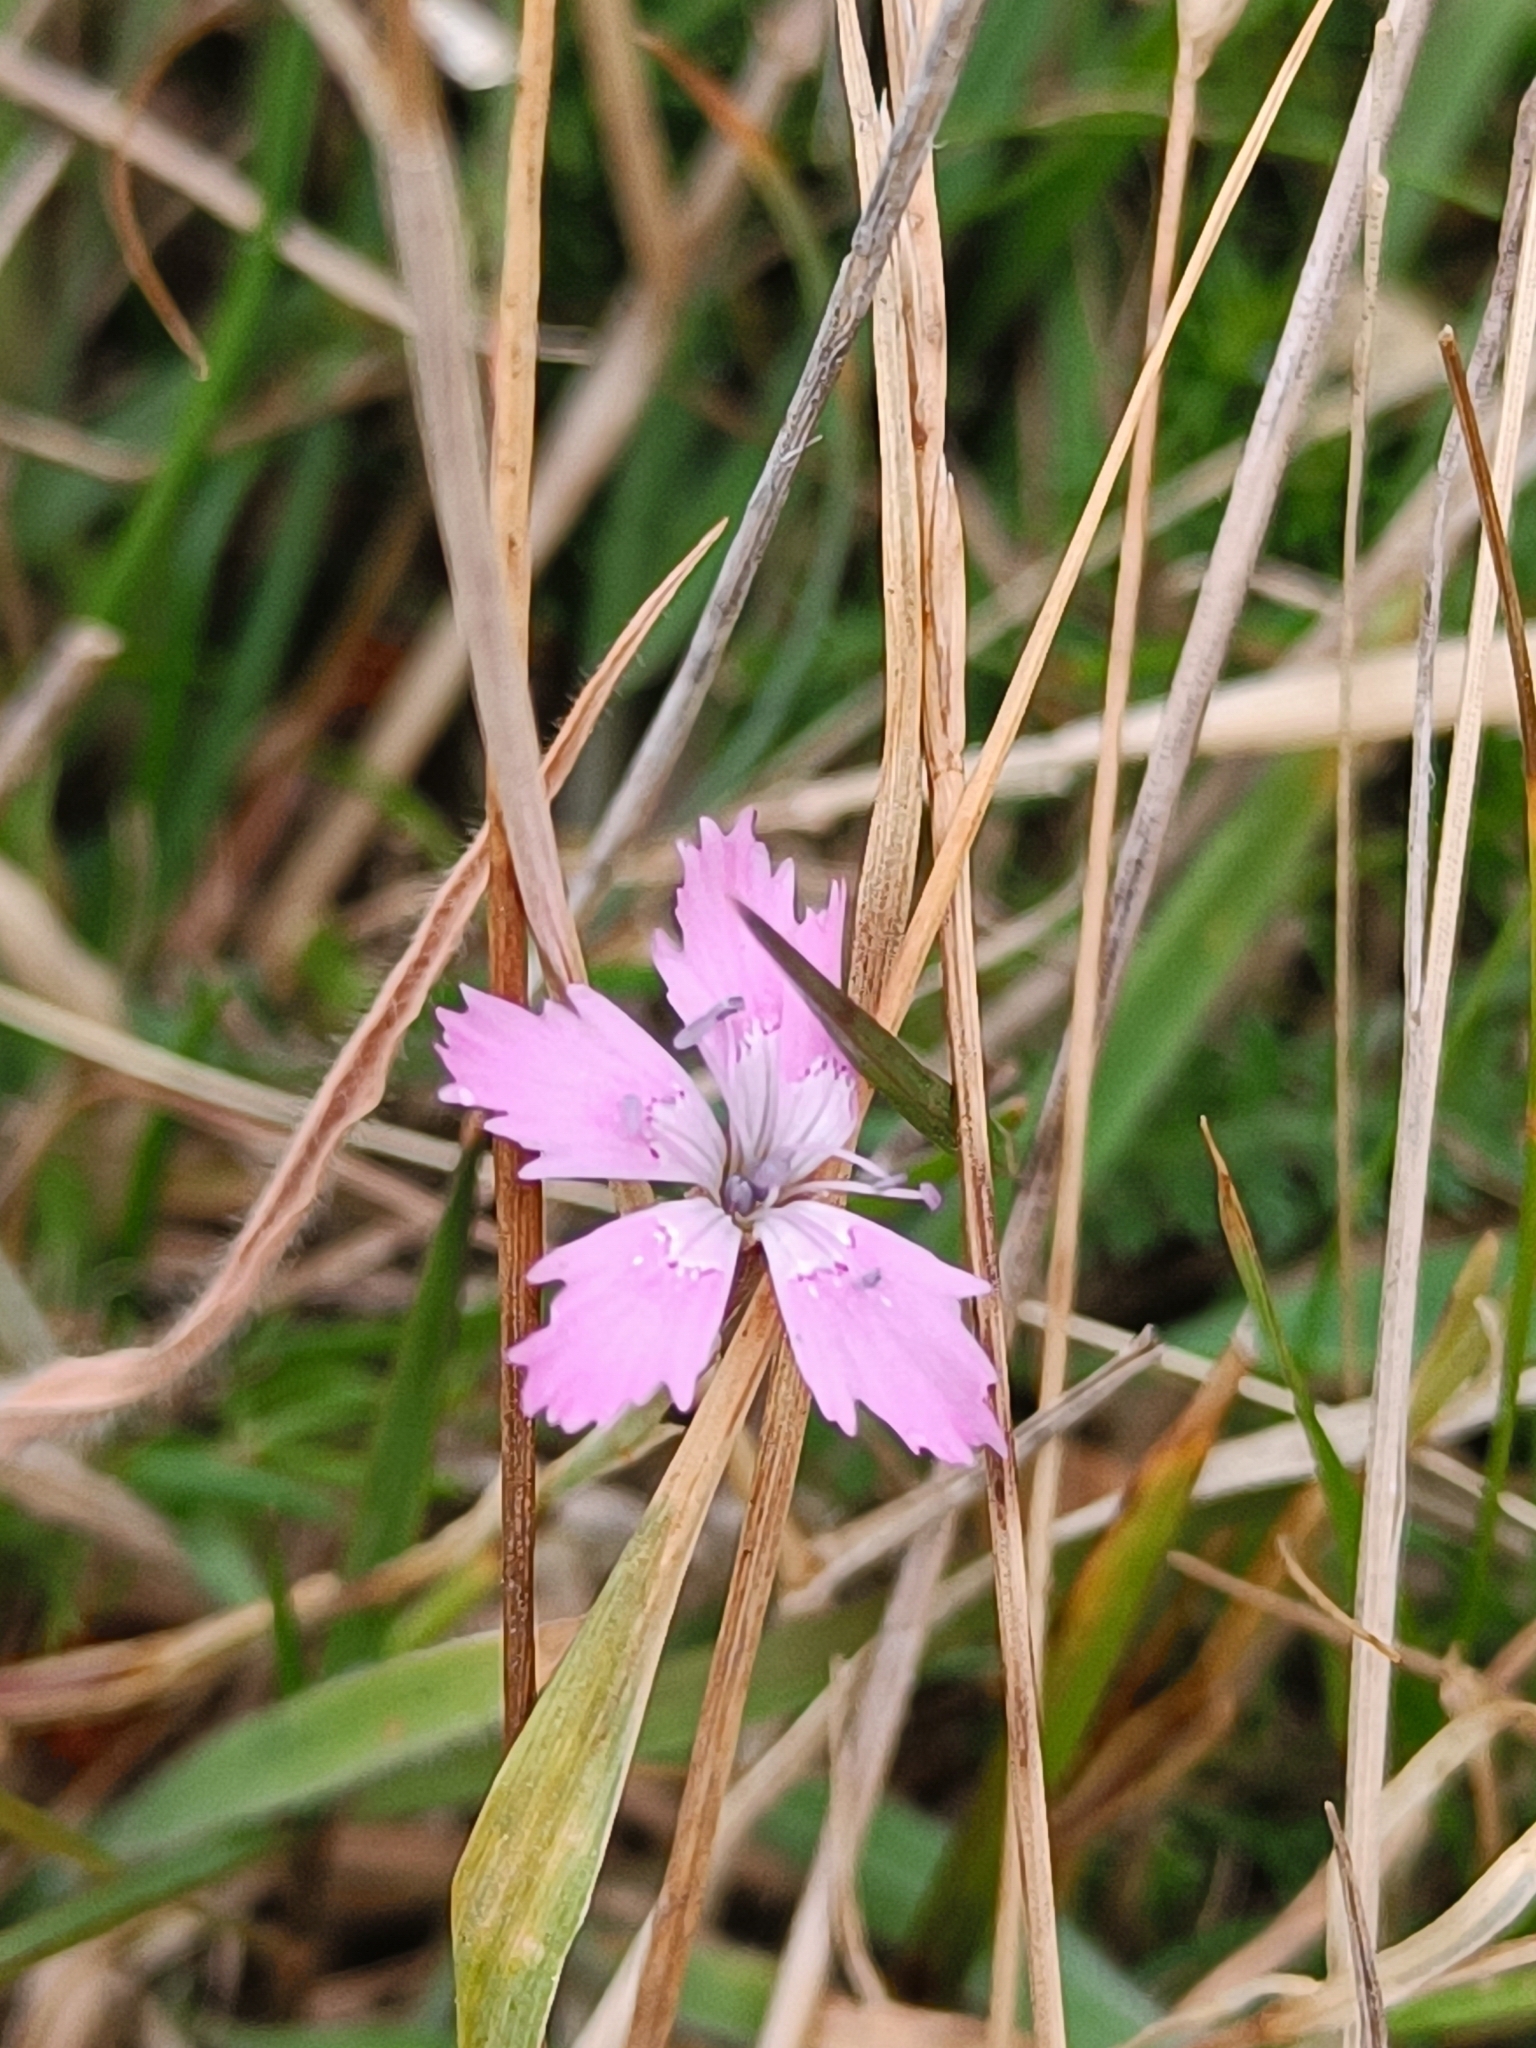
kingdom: Plantae
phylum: Tracheophyta
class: Magnoliopsida
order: Caryophyllales
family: Caryophyllaceae
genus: Dianthus
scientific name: Dianthus deltoides
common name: Maiden pink
